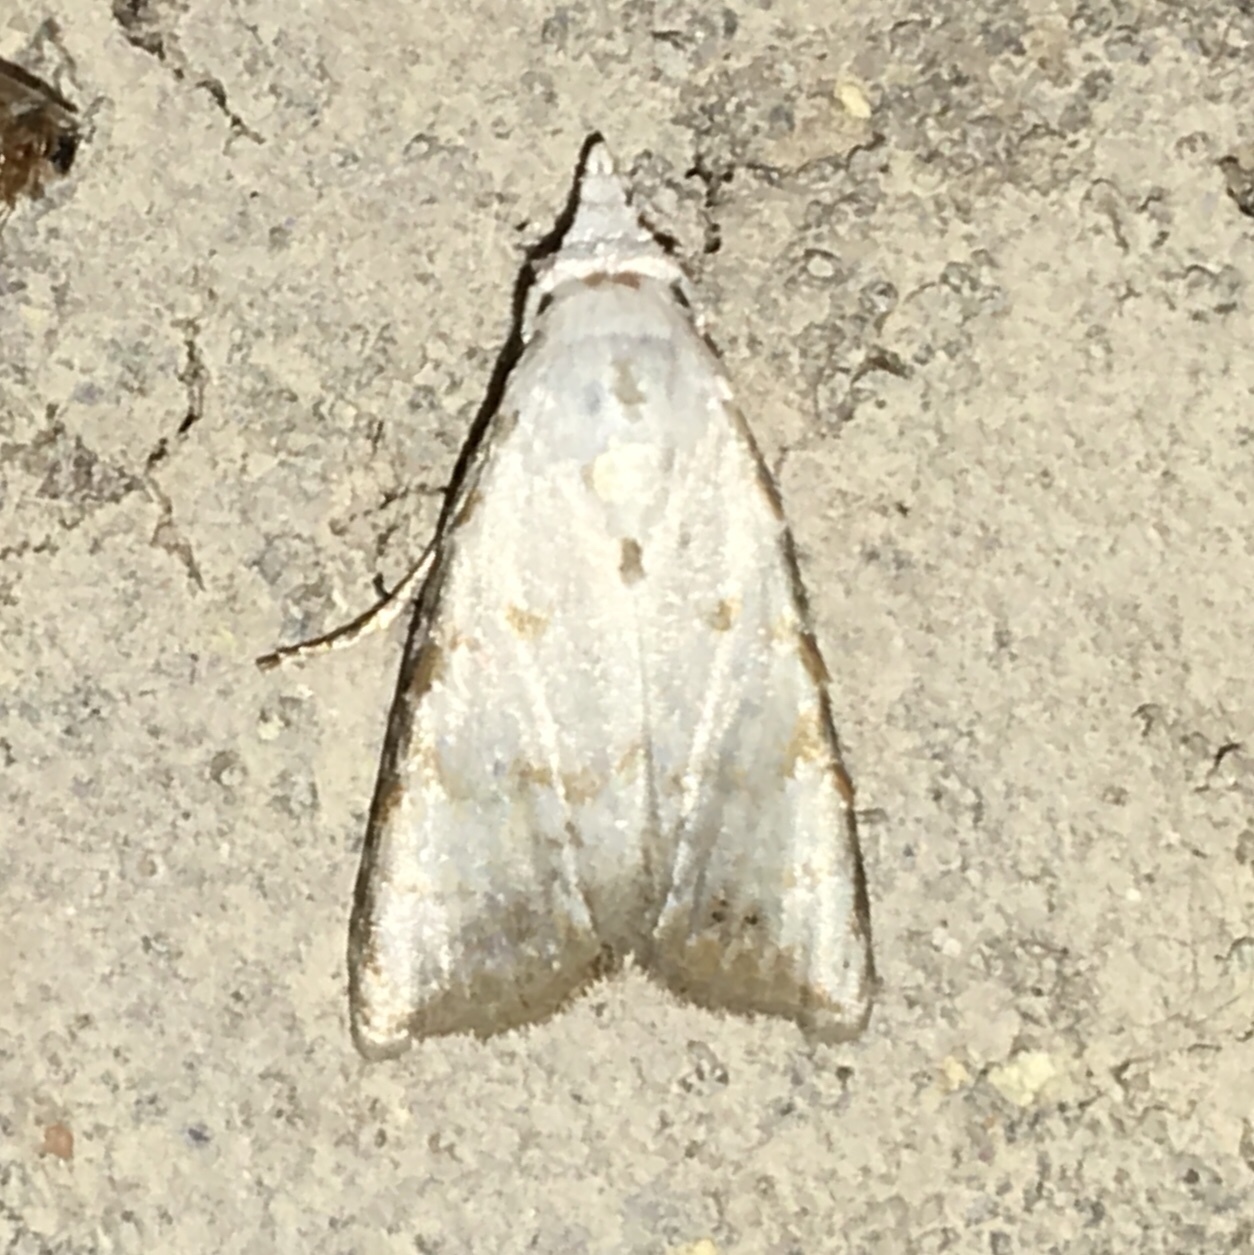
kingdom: Animalia
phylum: Arthropoda
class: Insecta
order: Lepidoptera
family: Nolidae
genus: Nola
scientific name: Nola cereella
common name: Sorghum webworm moth
